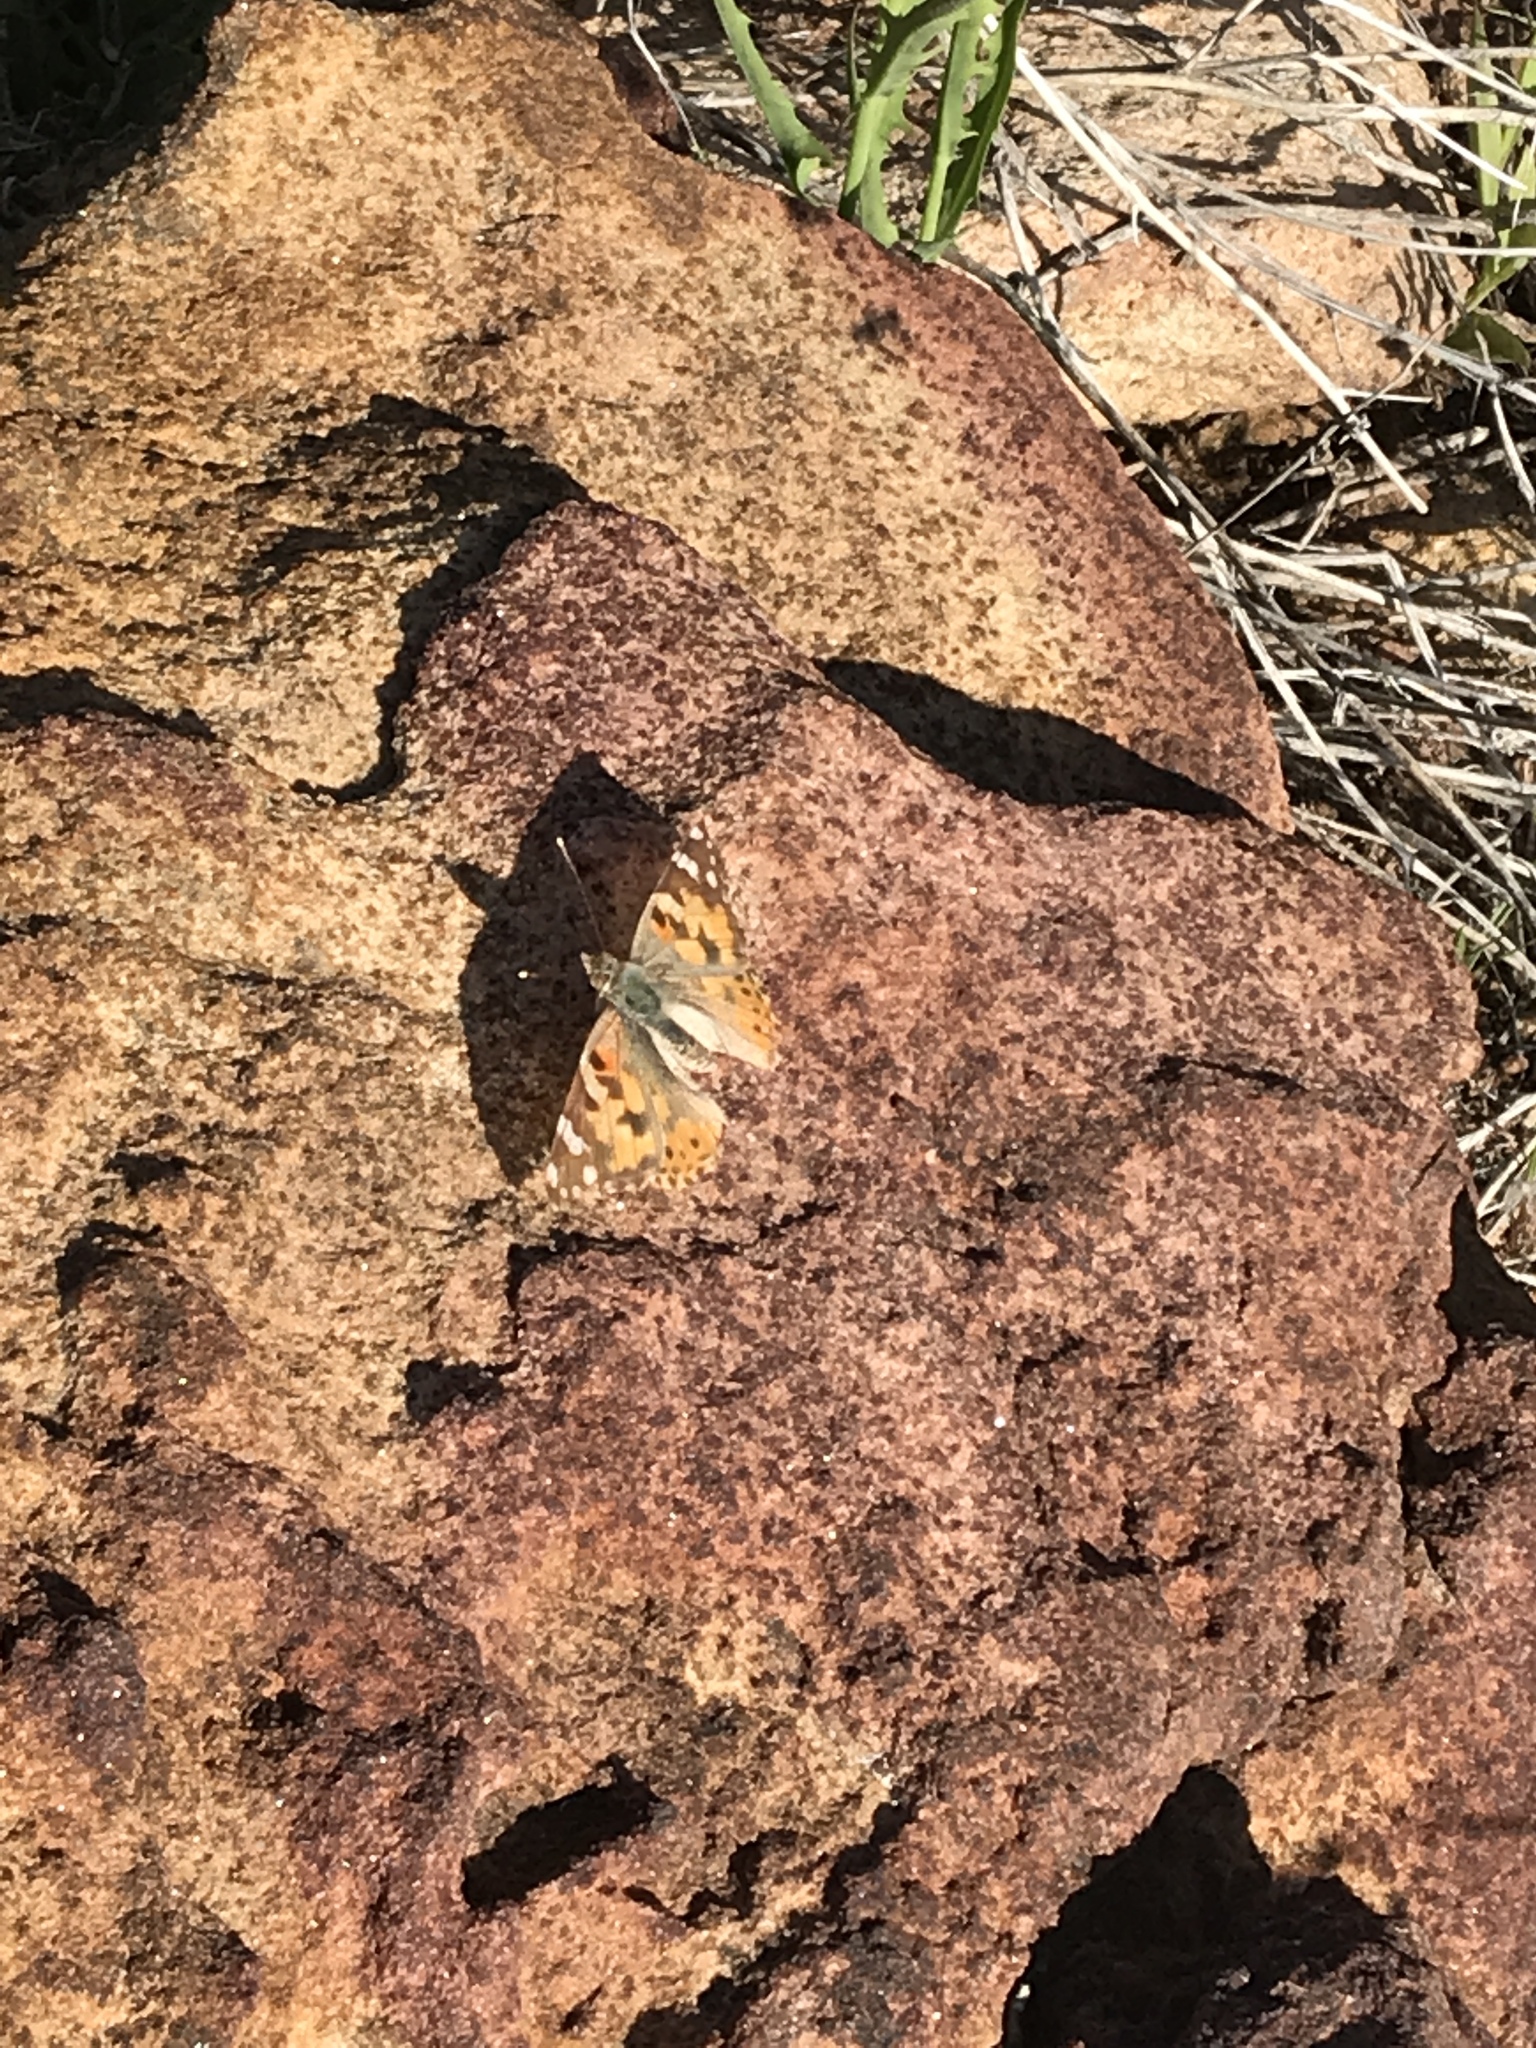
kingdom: Animalia
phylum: Arthropoda
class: Insecta
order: Lepidoptera
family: Nymphalidae
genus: Vanessa
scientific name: Vanessa cardui
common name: Painted lady
